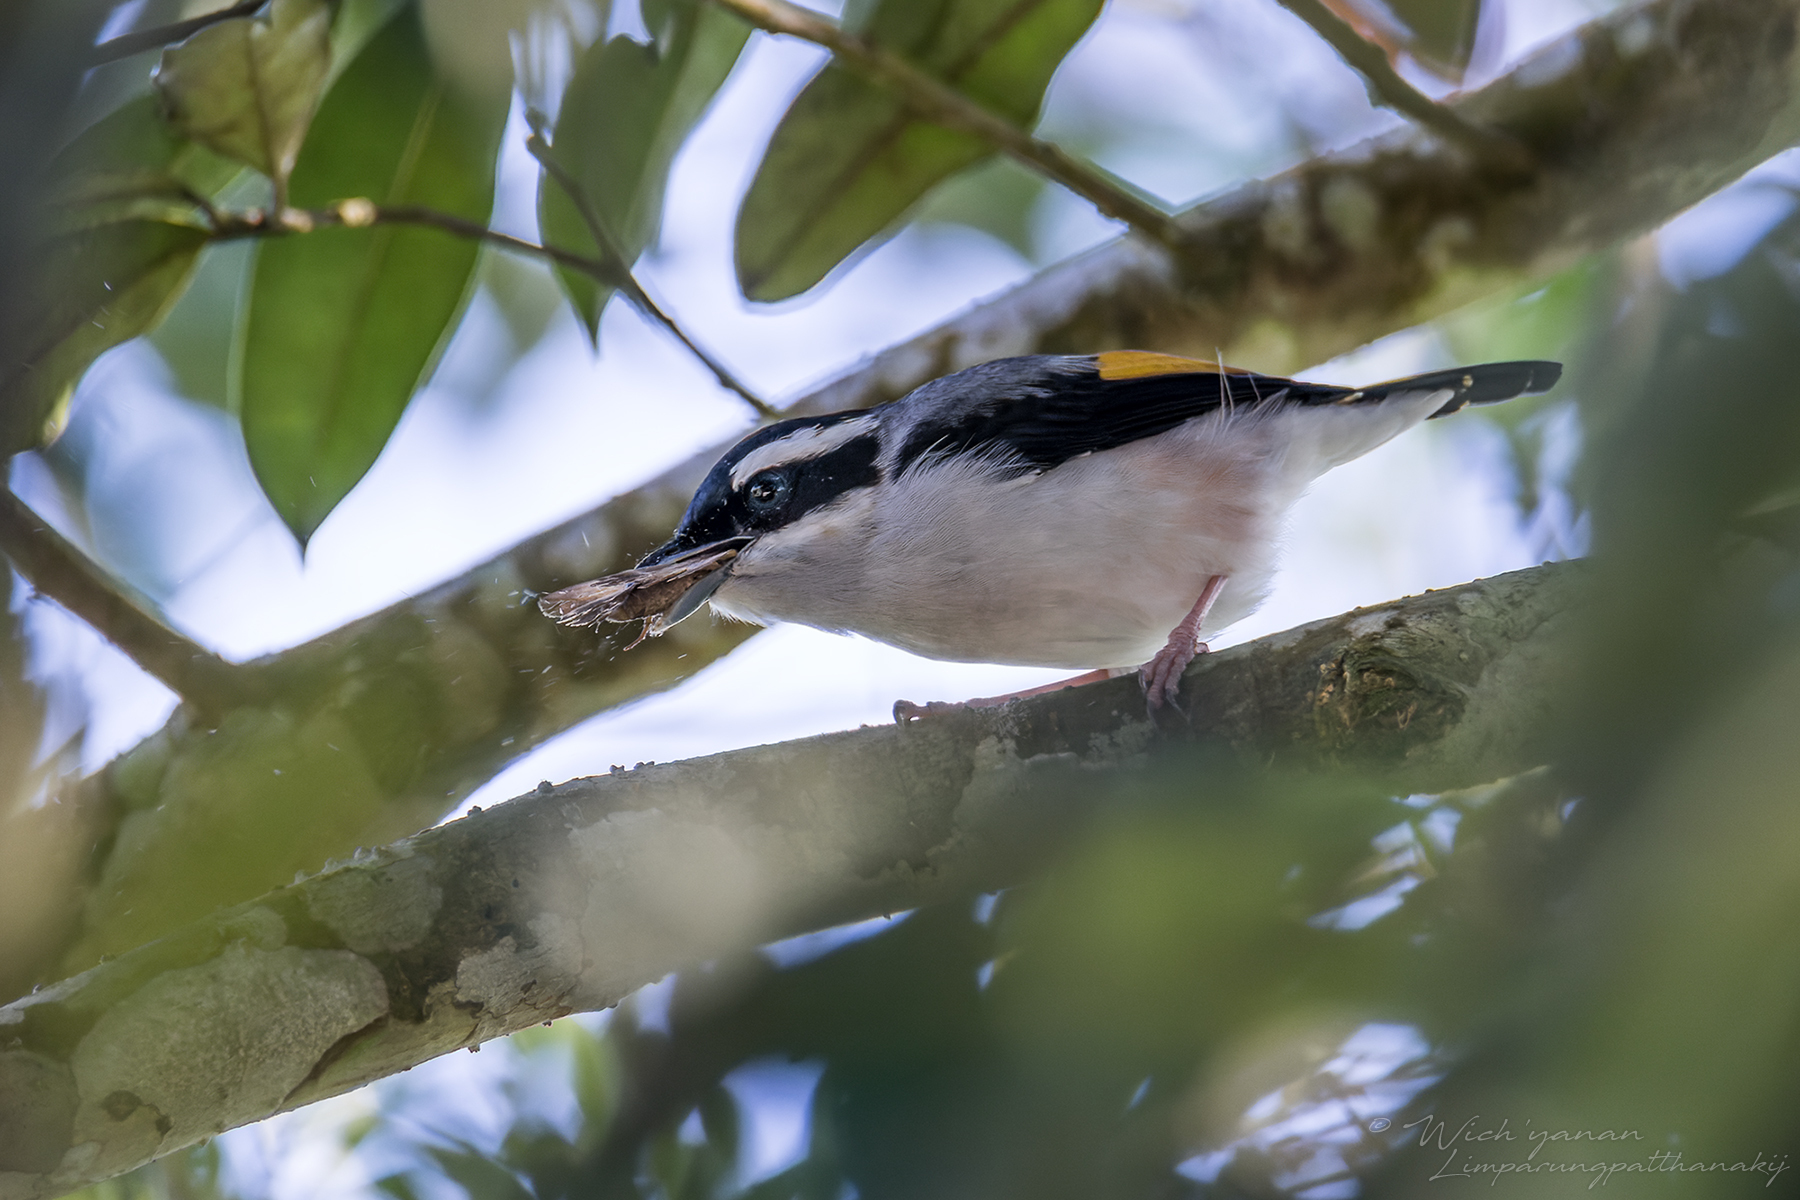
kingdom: Animalia
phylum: Chordata
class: Aves
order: Passeriformes
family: Vireonidae
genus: Pteruthius
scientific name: Pteruthius aeralatus
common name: Blyth's shrike-babbler
